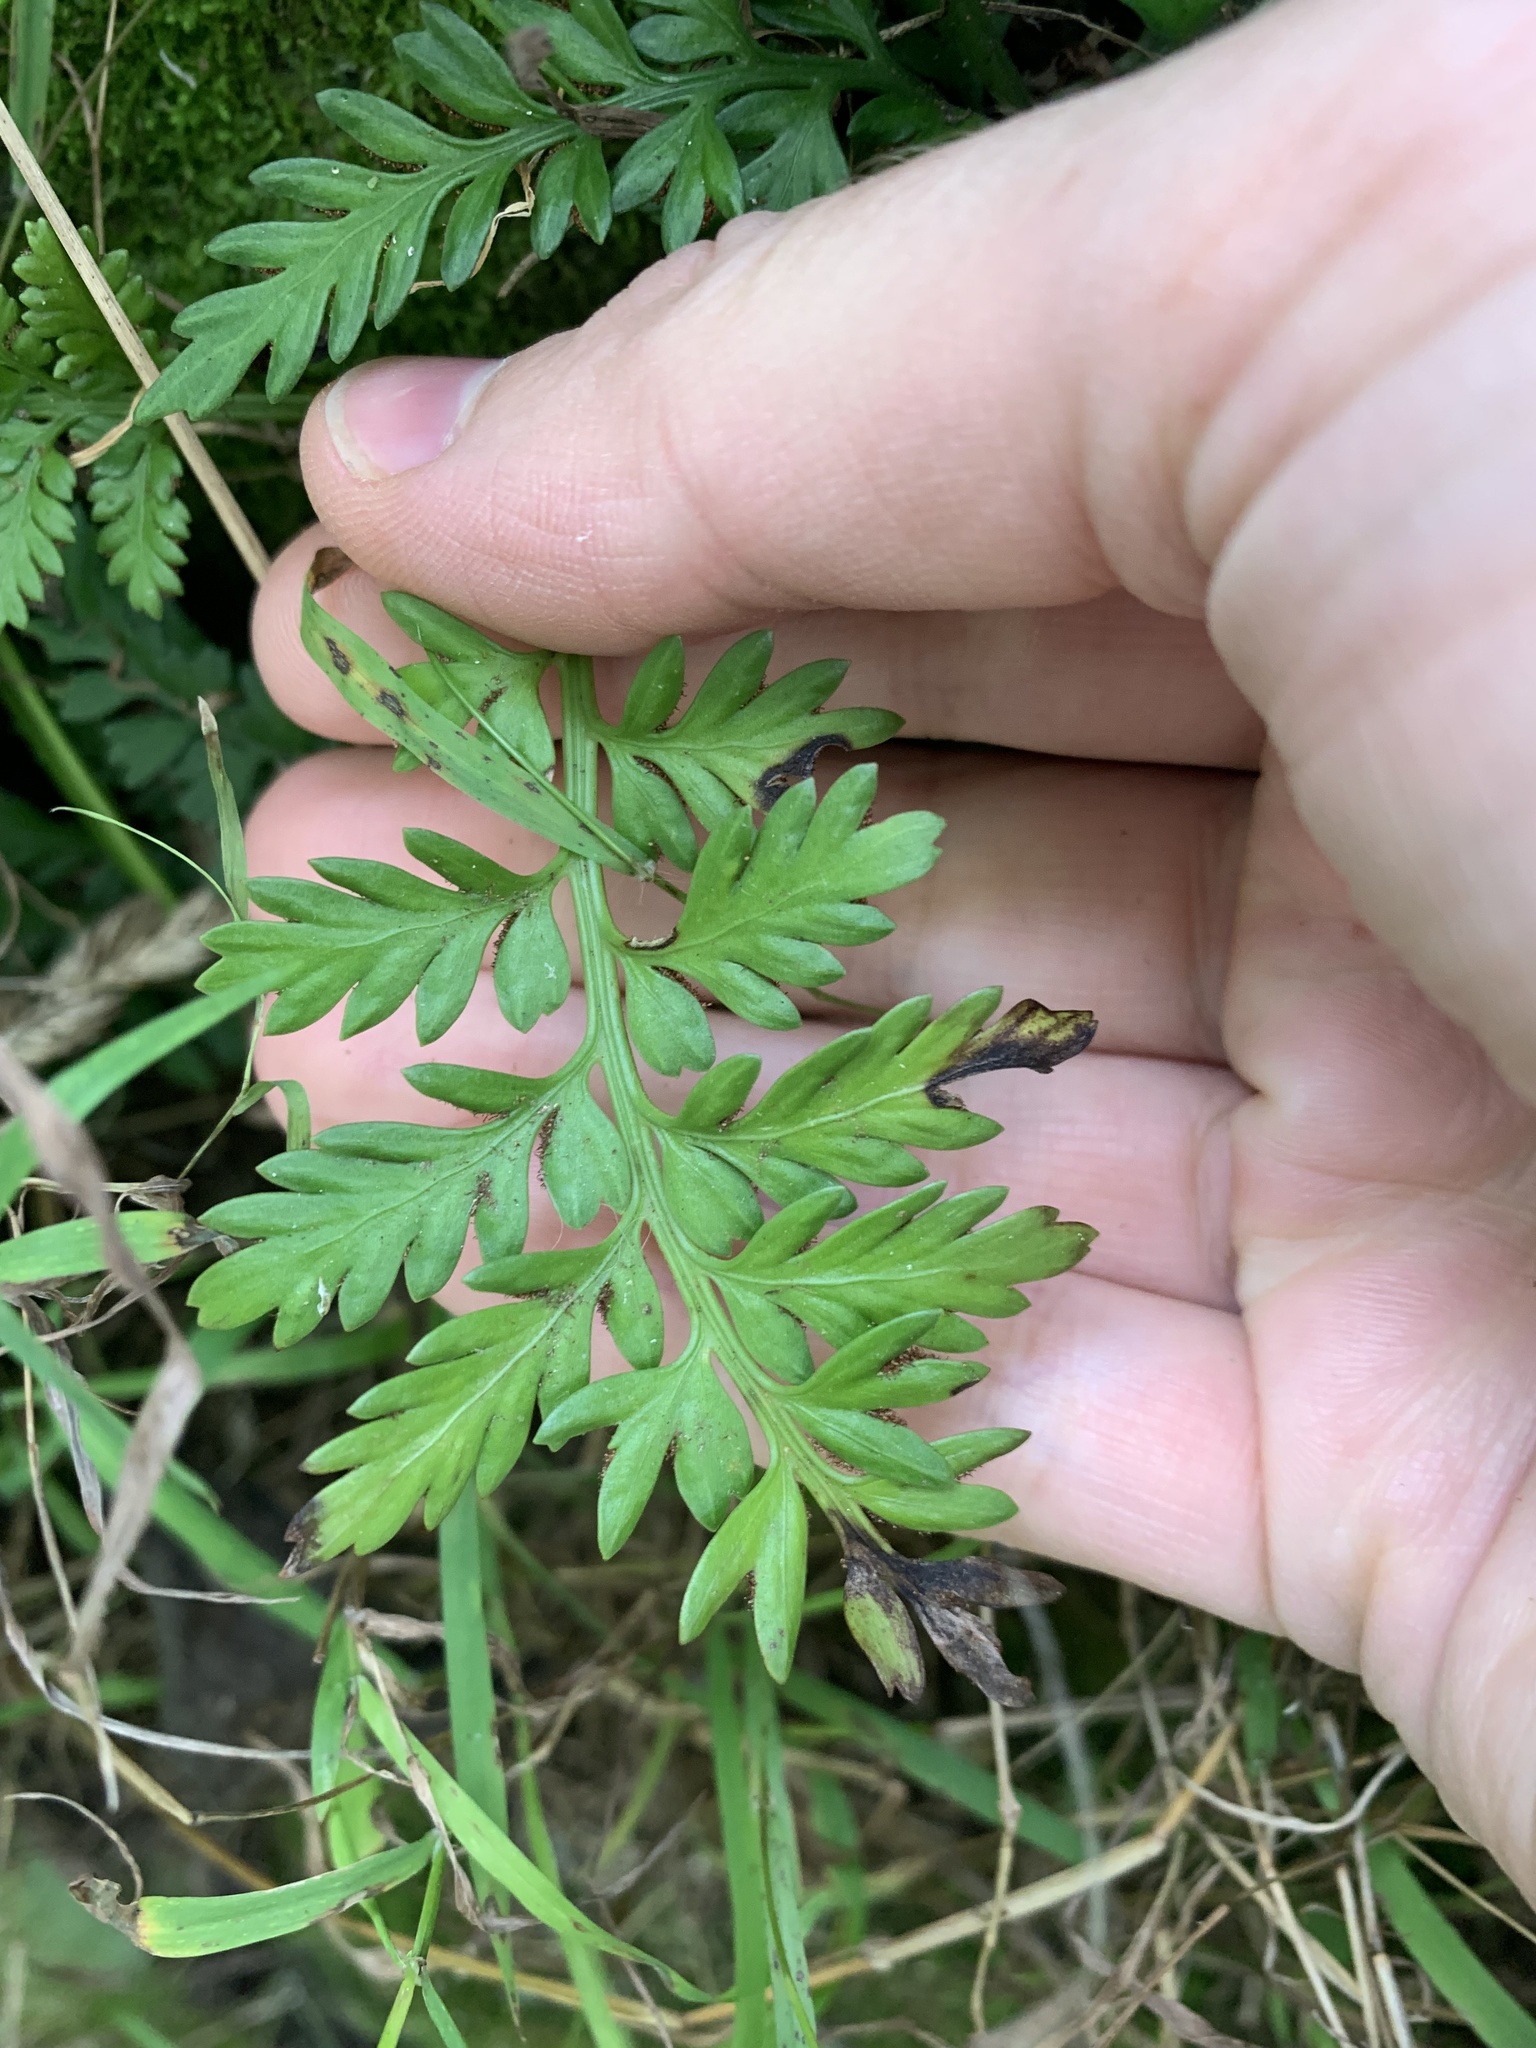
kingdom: Plantae
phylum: Tracheophyta
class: Polypodiopsida
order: Polypodiales
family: Aspleniaceae
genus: Asplenium
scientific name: Asplenium appendiculatum
